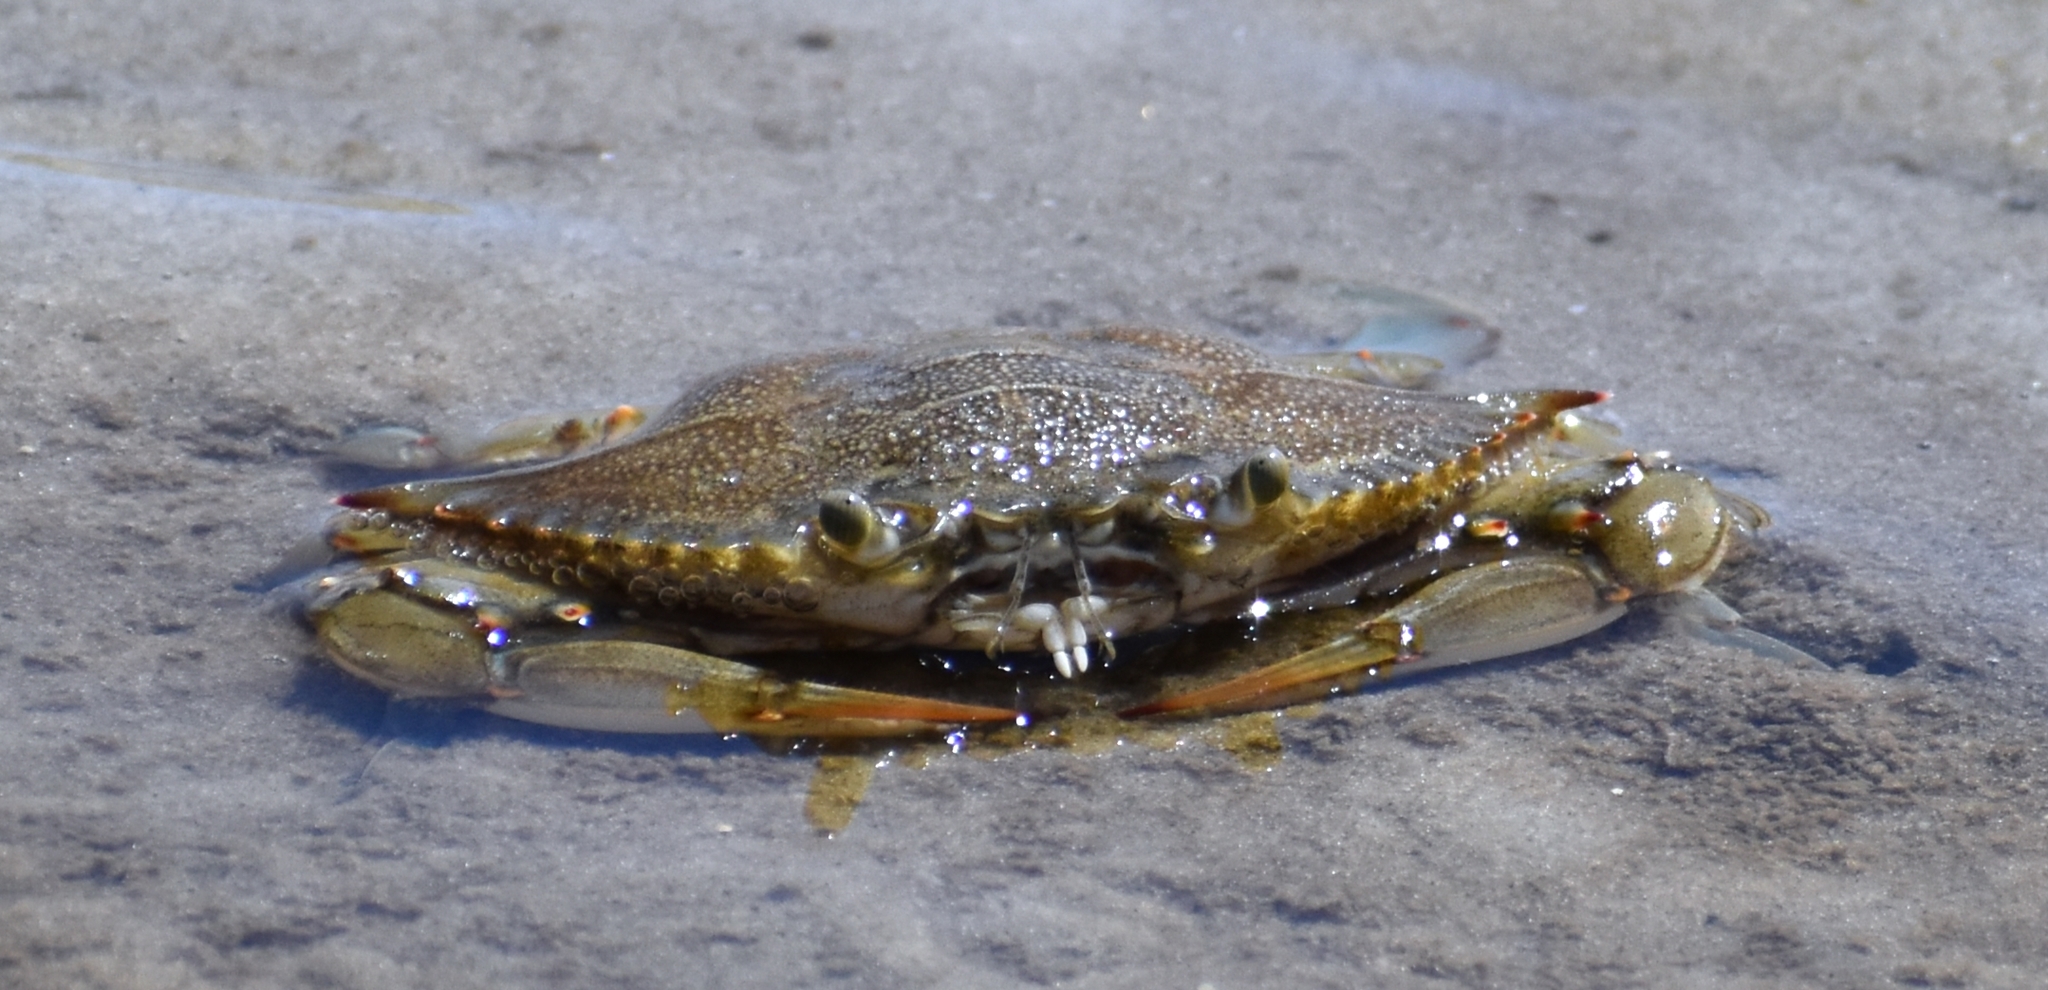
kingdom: Animalia
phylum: Arthropoda
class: Malacostraca
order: Decapoda
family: Portunidae
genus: Callinectes
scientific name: Callinectes sapidus
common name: Blue crab
